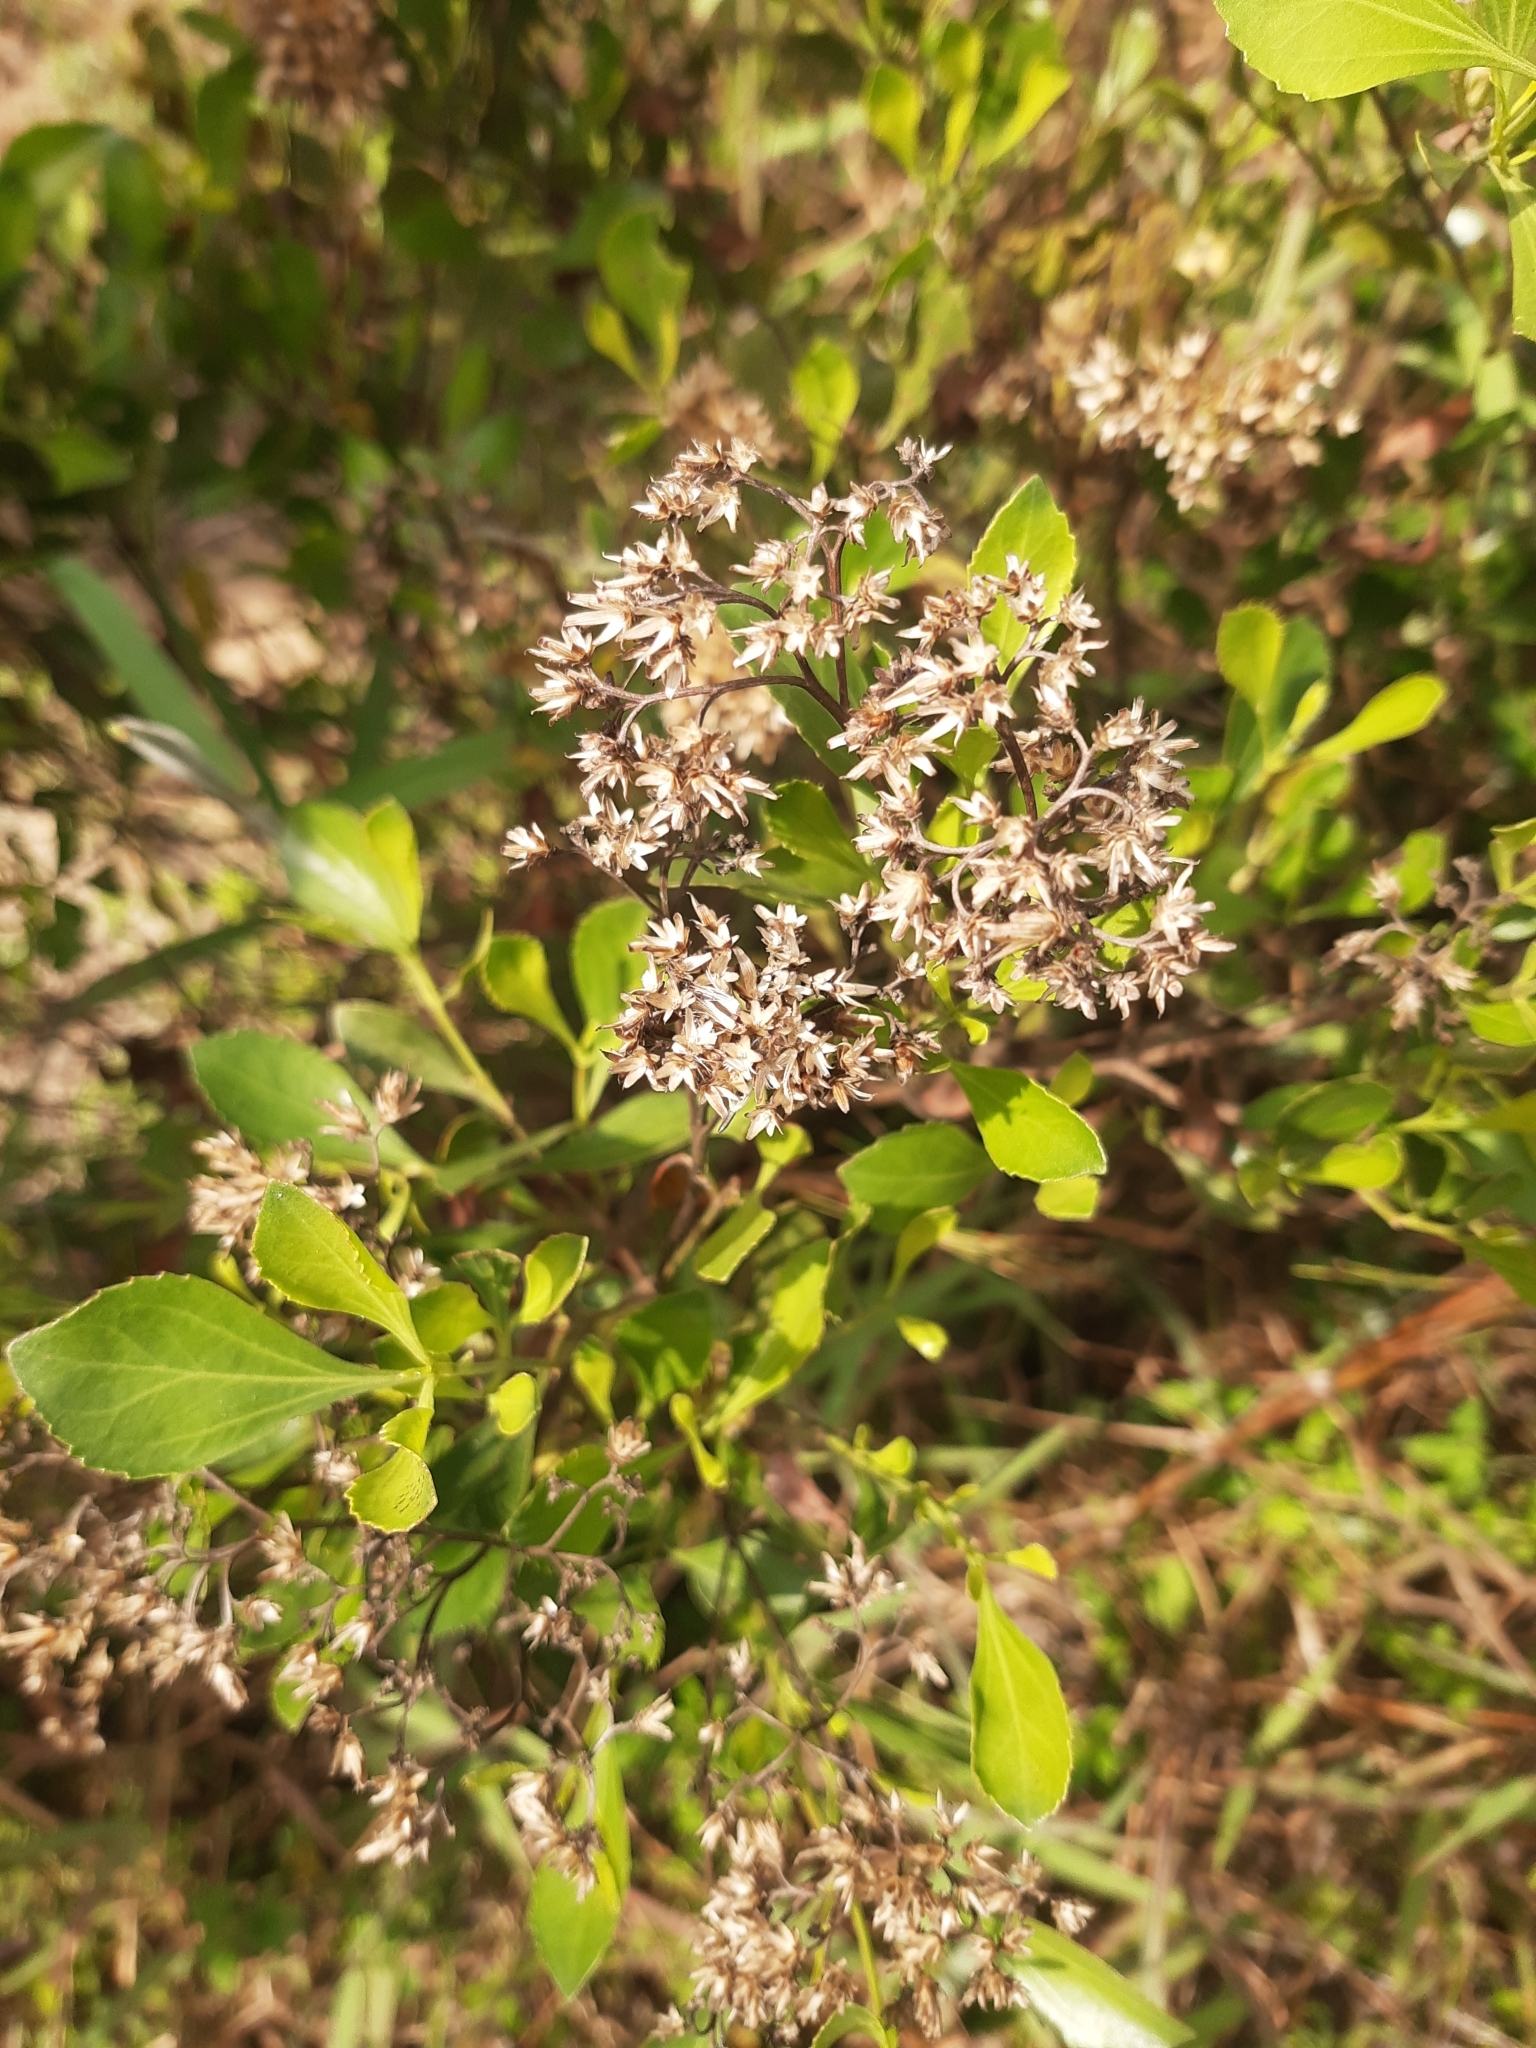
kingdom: Plantae
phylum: Tracheophyta
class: Magnoliopsida
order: Asterales
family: Asteraceae
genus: Symphyopappus
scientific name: Symphyopappus casarettoi
